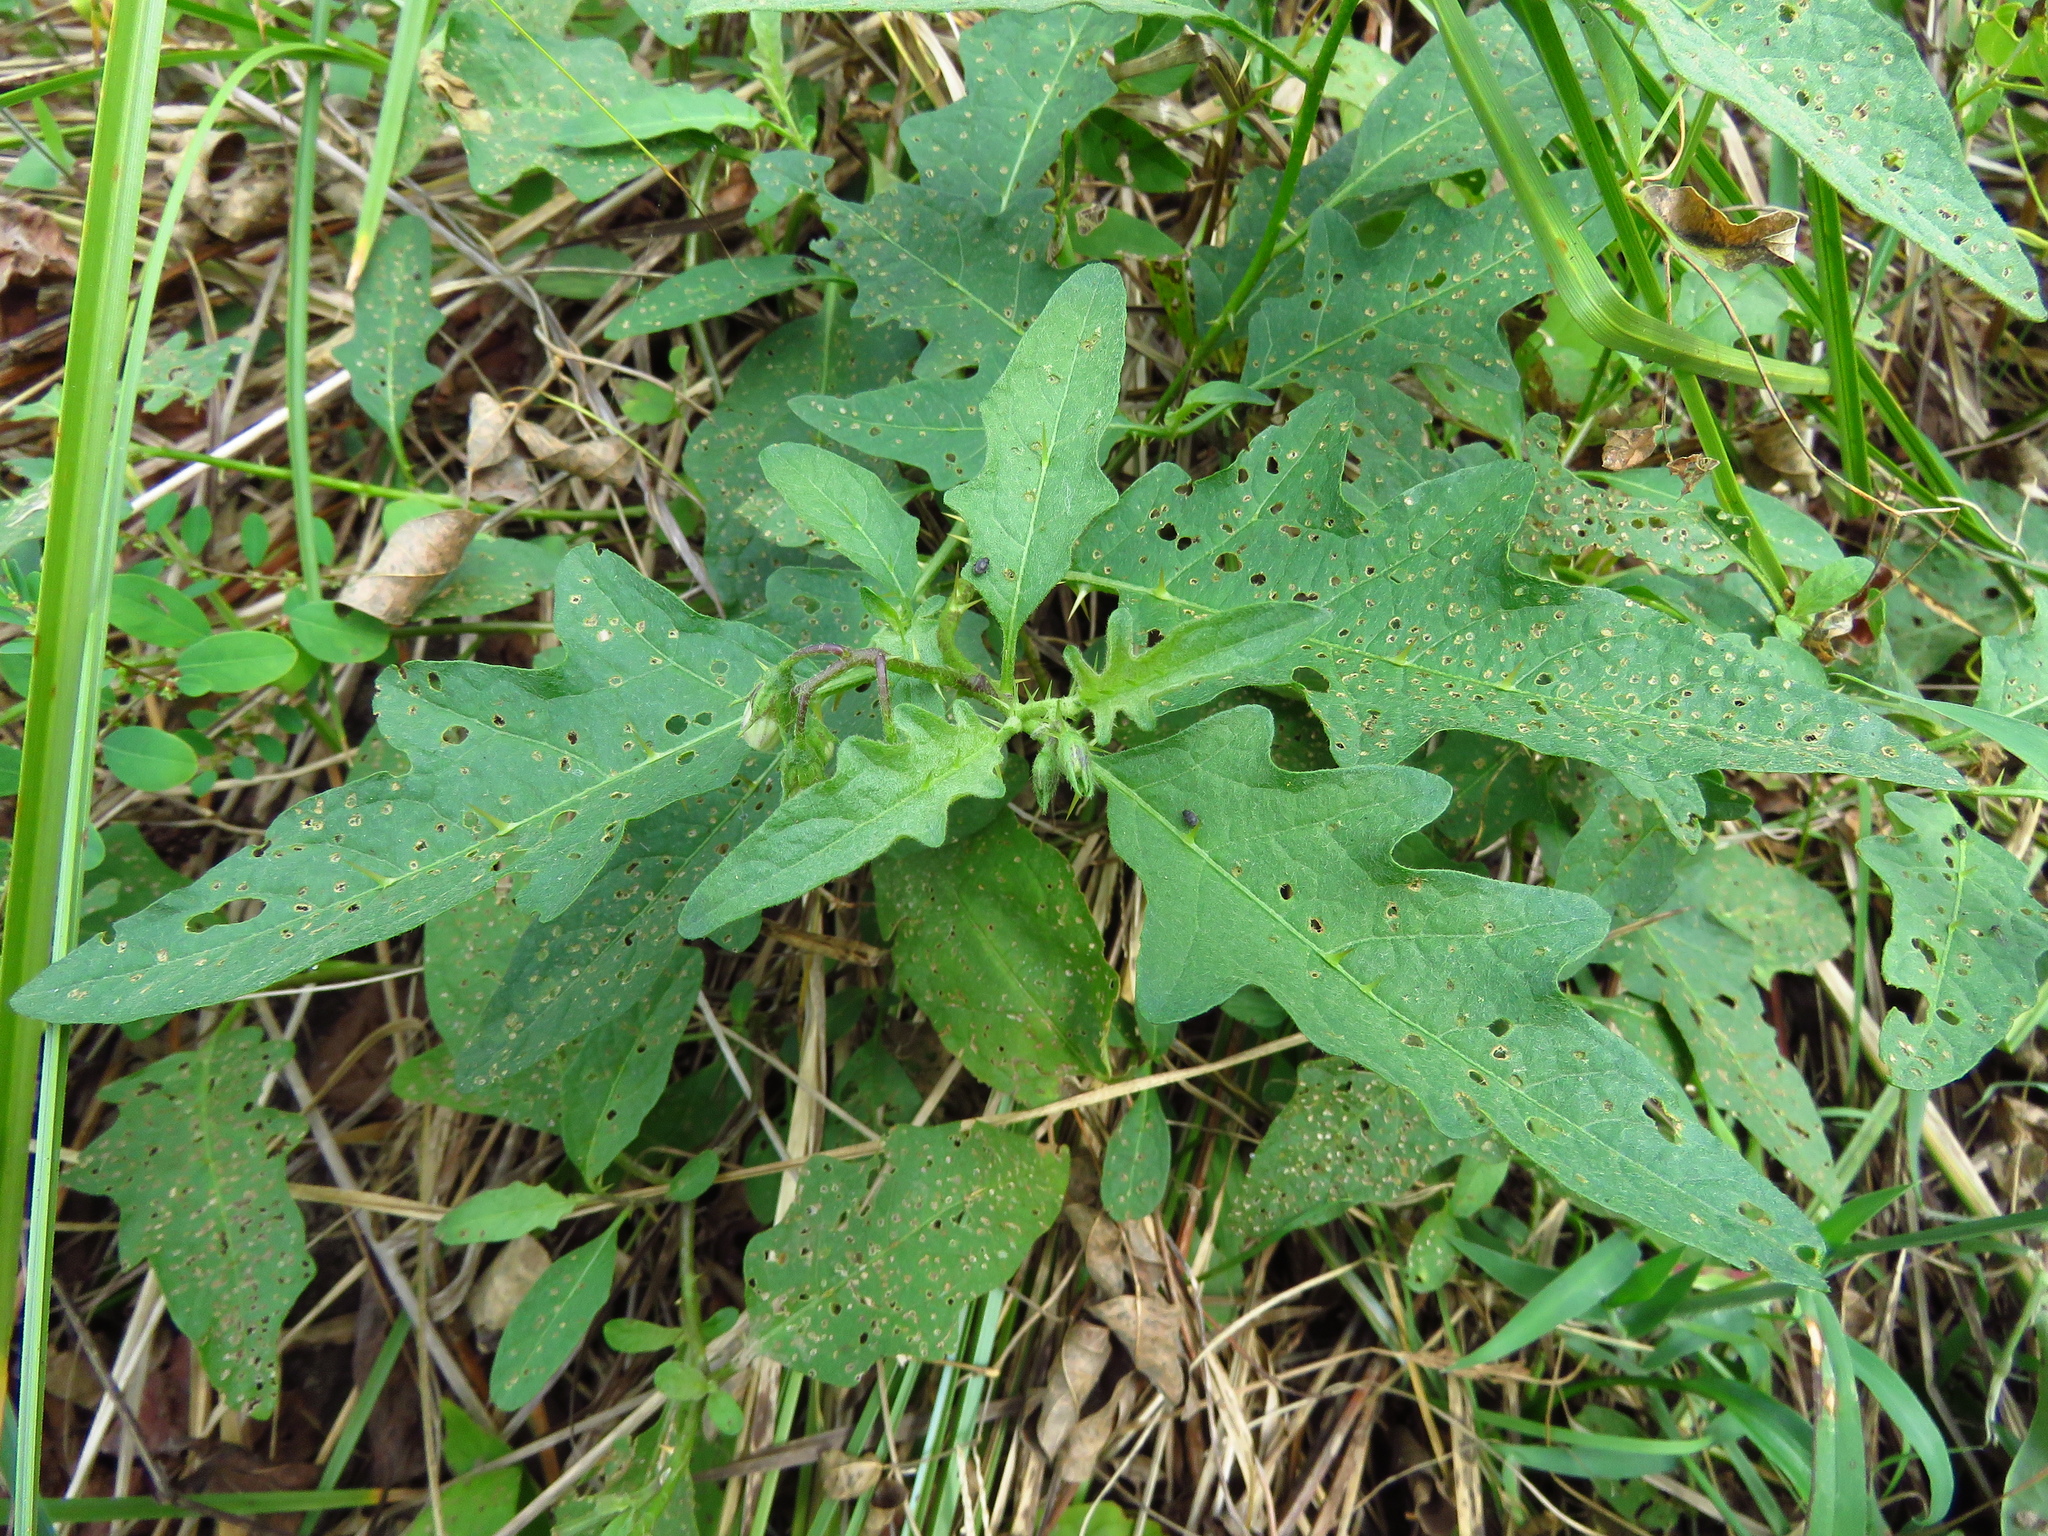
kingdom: Plantae
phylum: Tracheophyta
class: Magnoliopsida
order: Solanales
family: Solanaceae
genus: Solanum
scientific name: Solanum carolinense
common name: Horse-nettle
